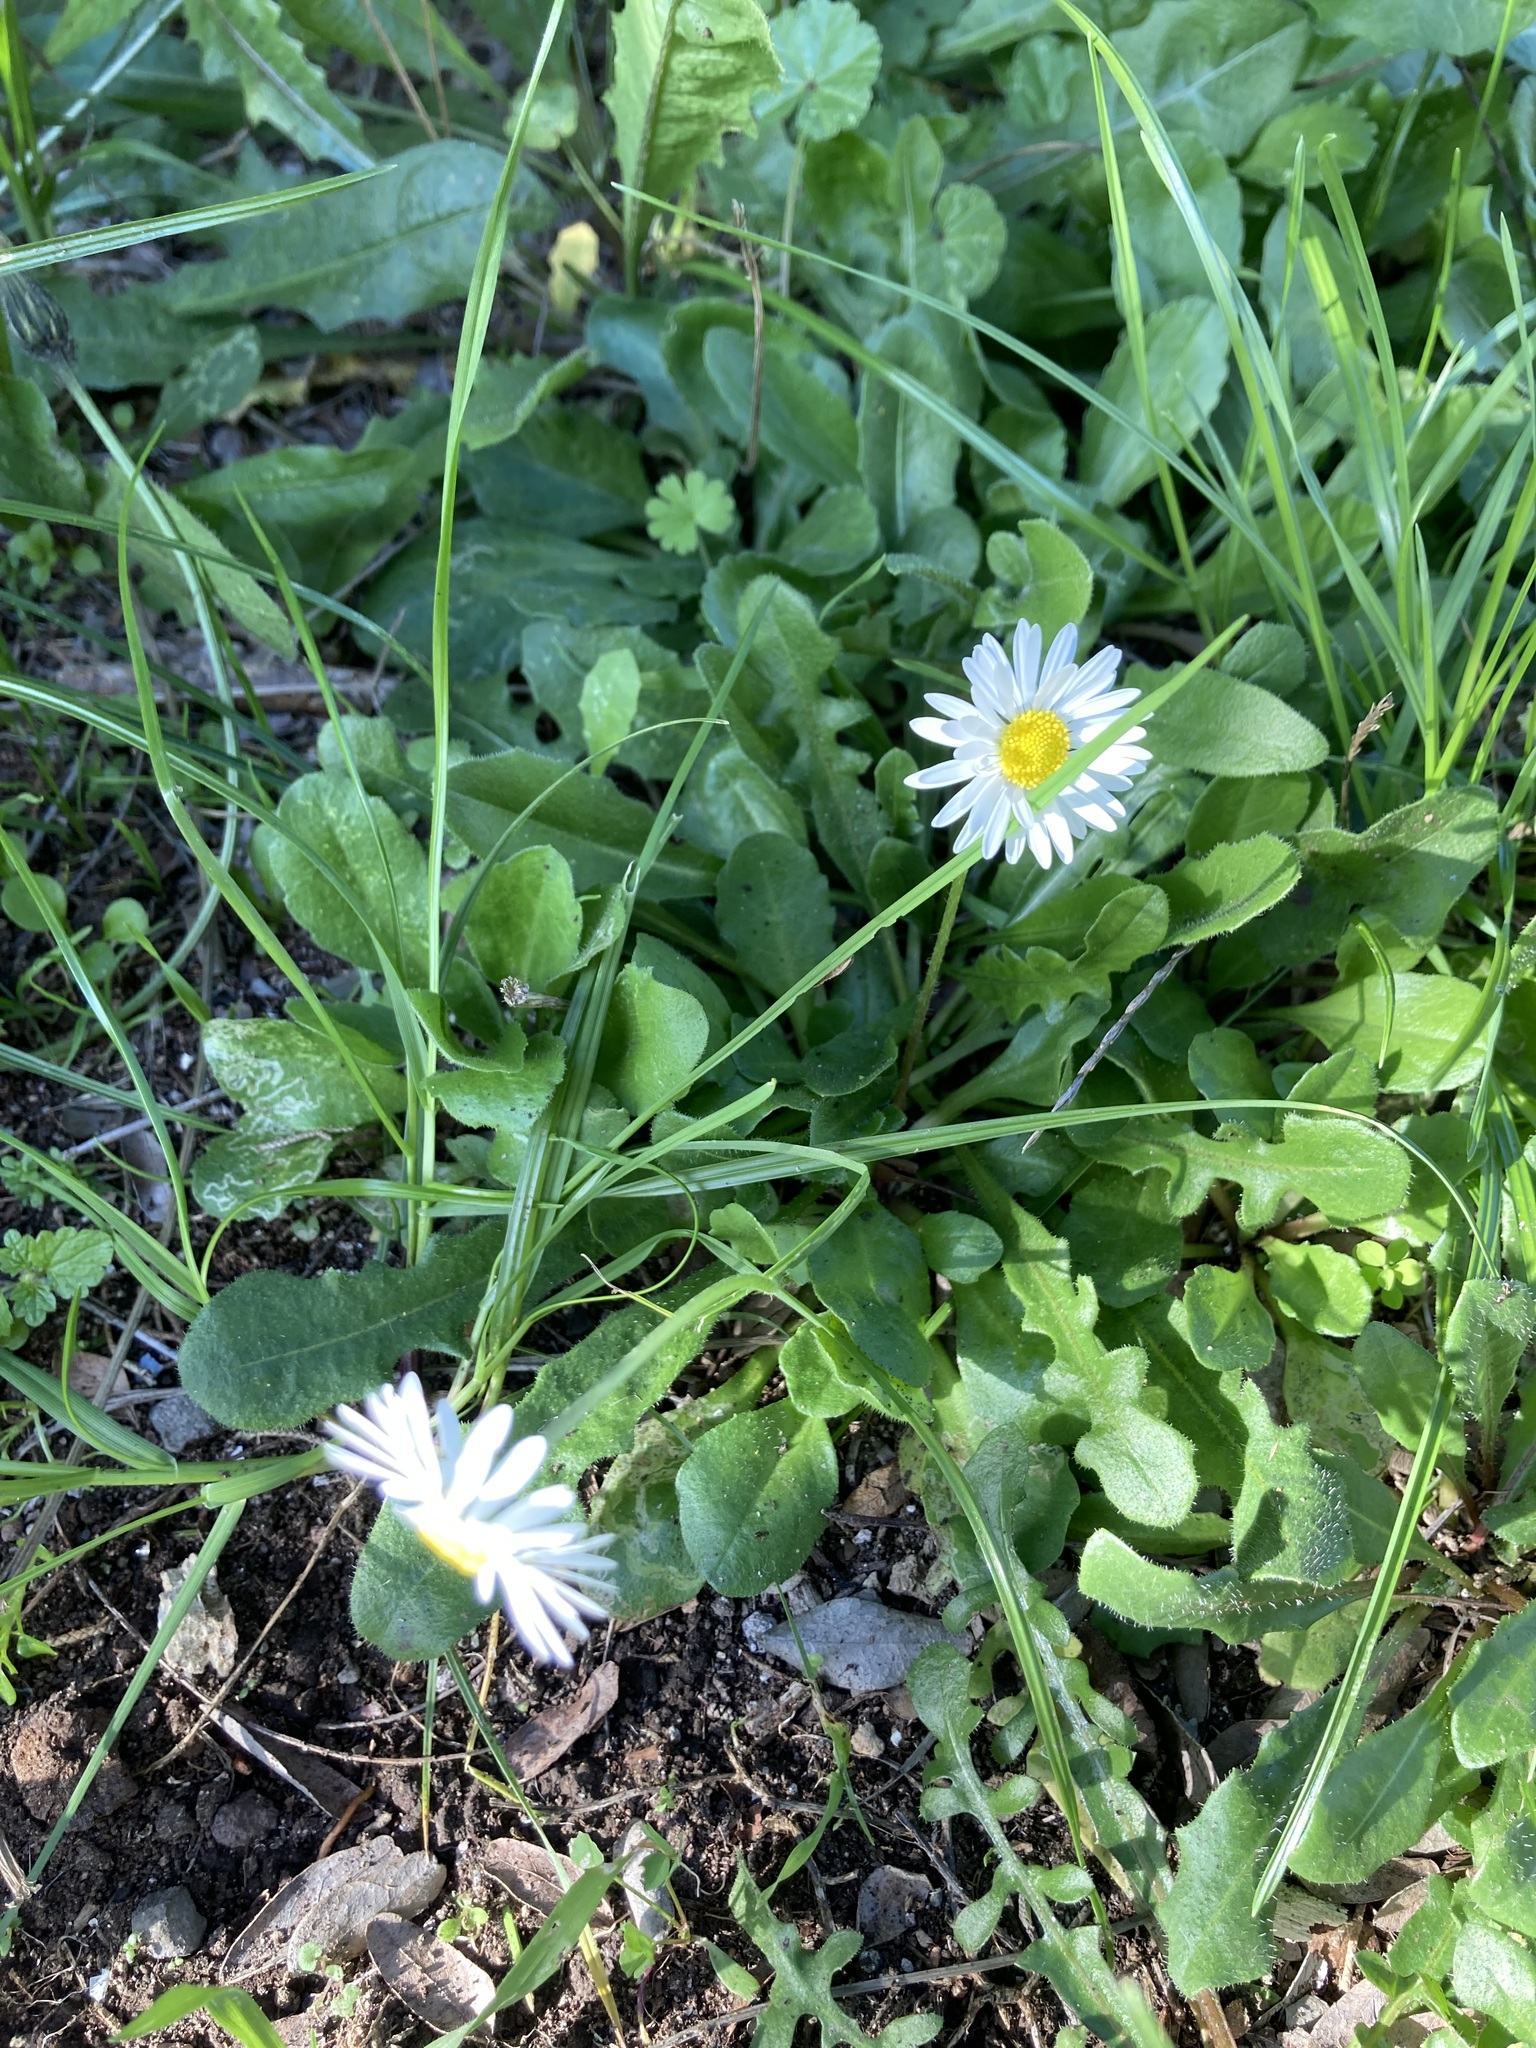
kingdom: Plantae
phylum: Tracheophyta
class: Magnoliopsida
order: Asterales
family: Asteraceae
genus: Bellis
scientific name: Bellis perennis
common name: Lawndaisy
